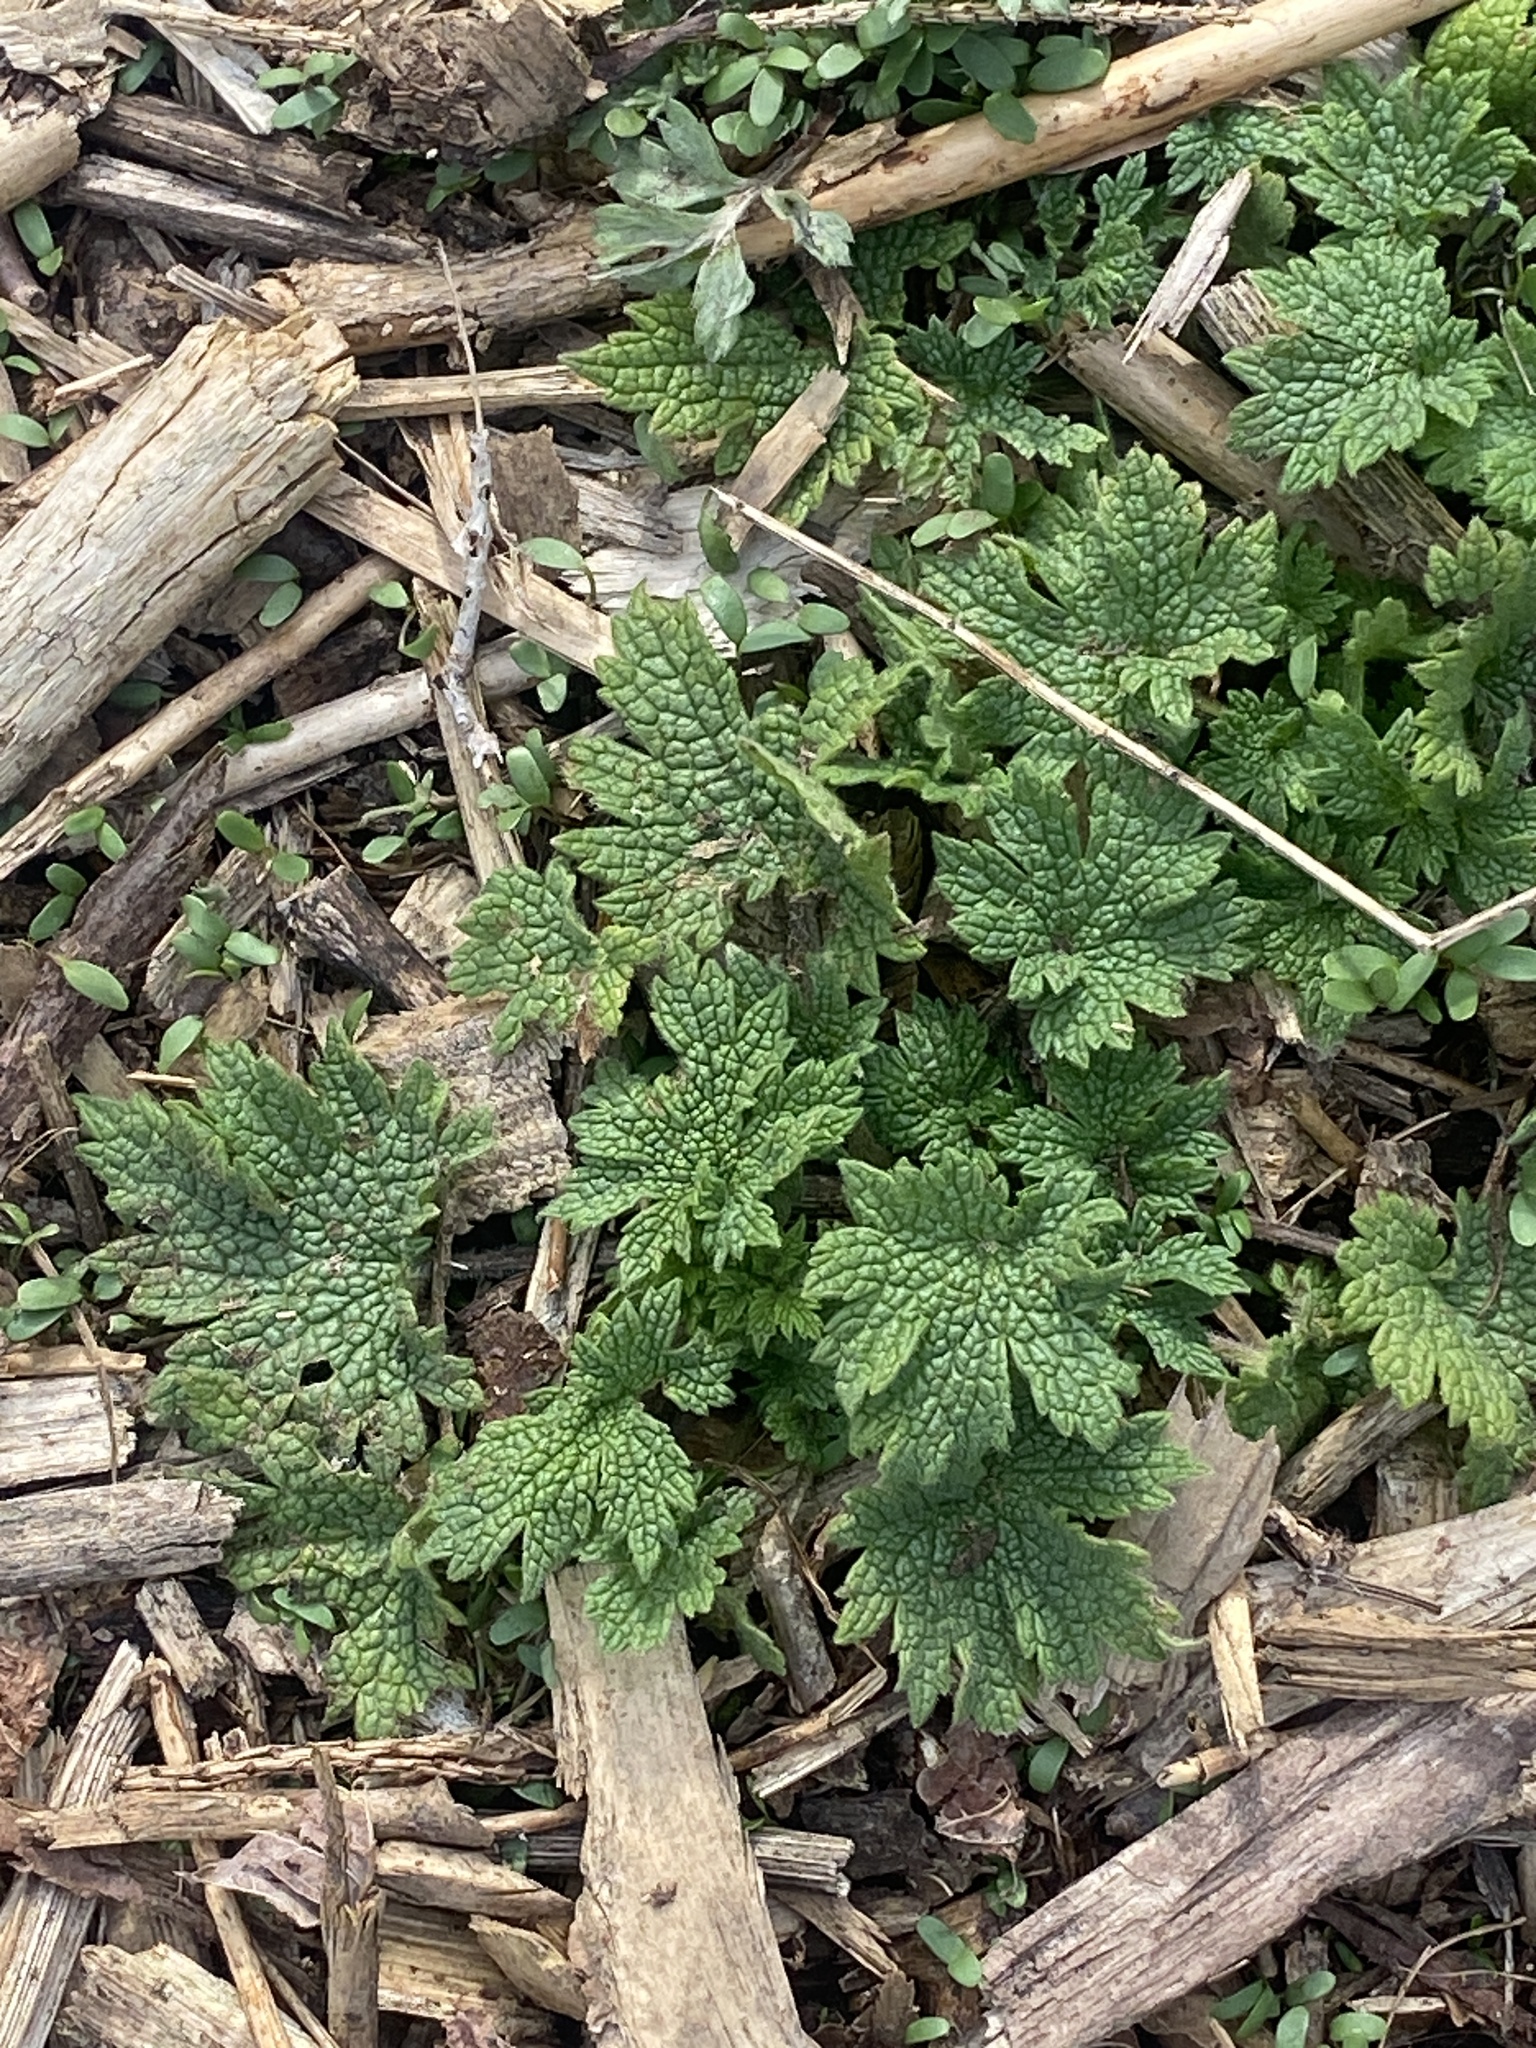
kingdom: Plantae
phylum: Tracheophyta
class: Magnoliopsida
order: Lamiales
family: Lamiaceae
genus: Leonurus
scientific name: Leonurus cardiaca
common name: Motherwort
